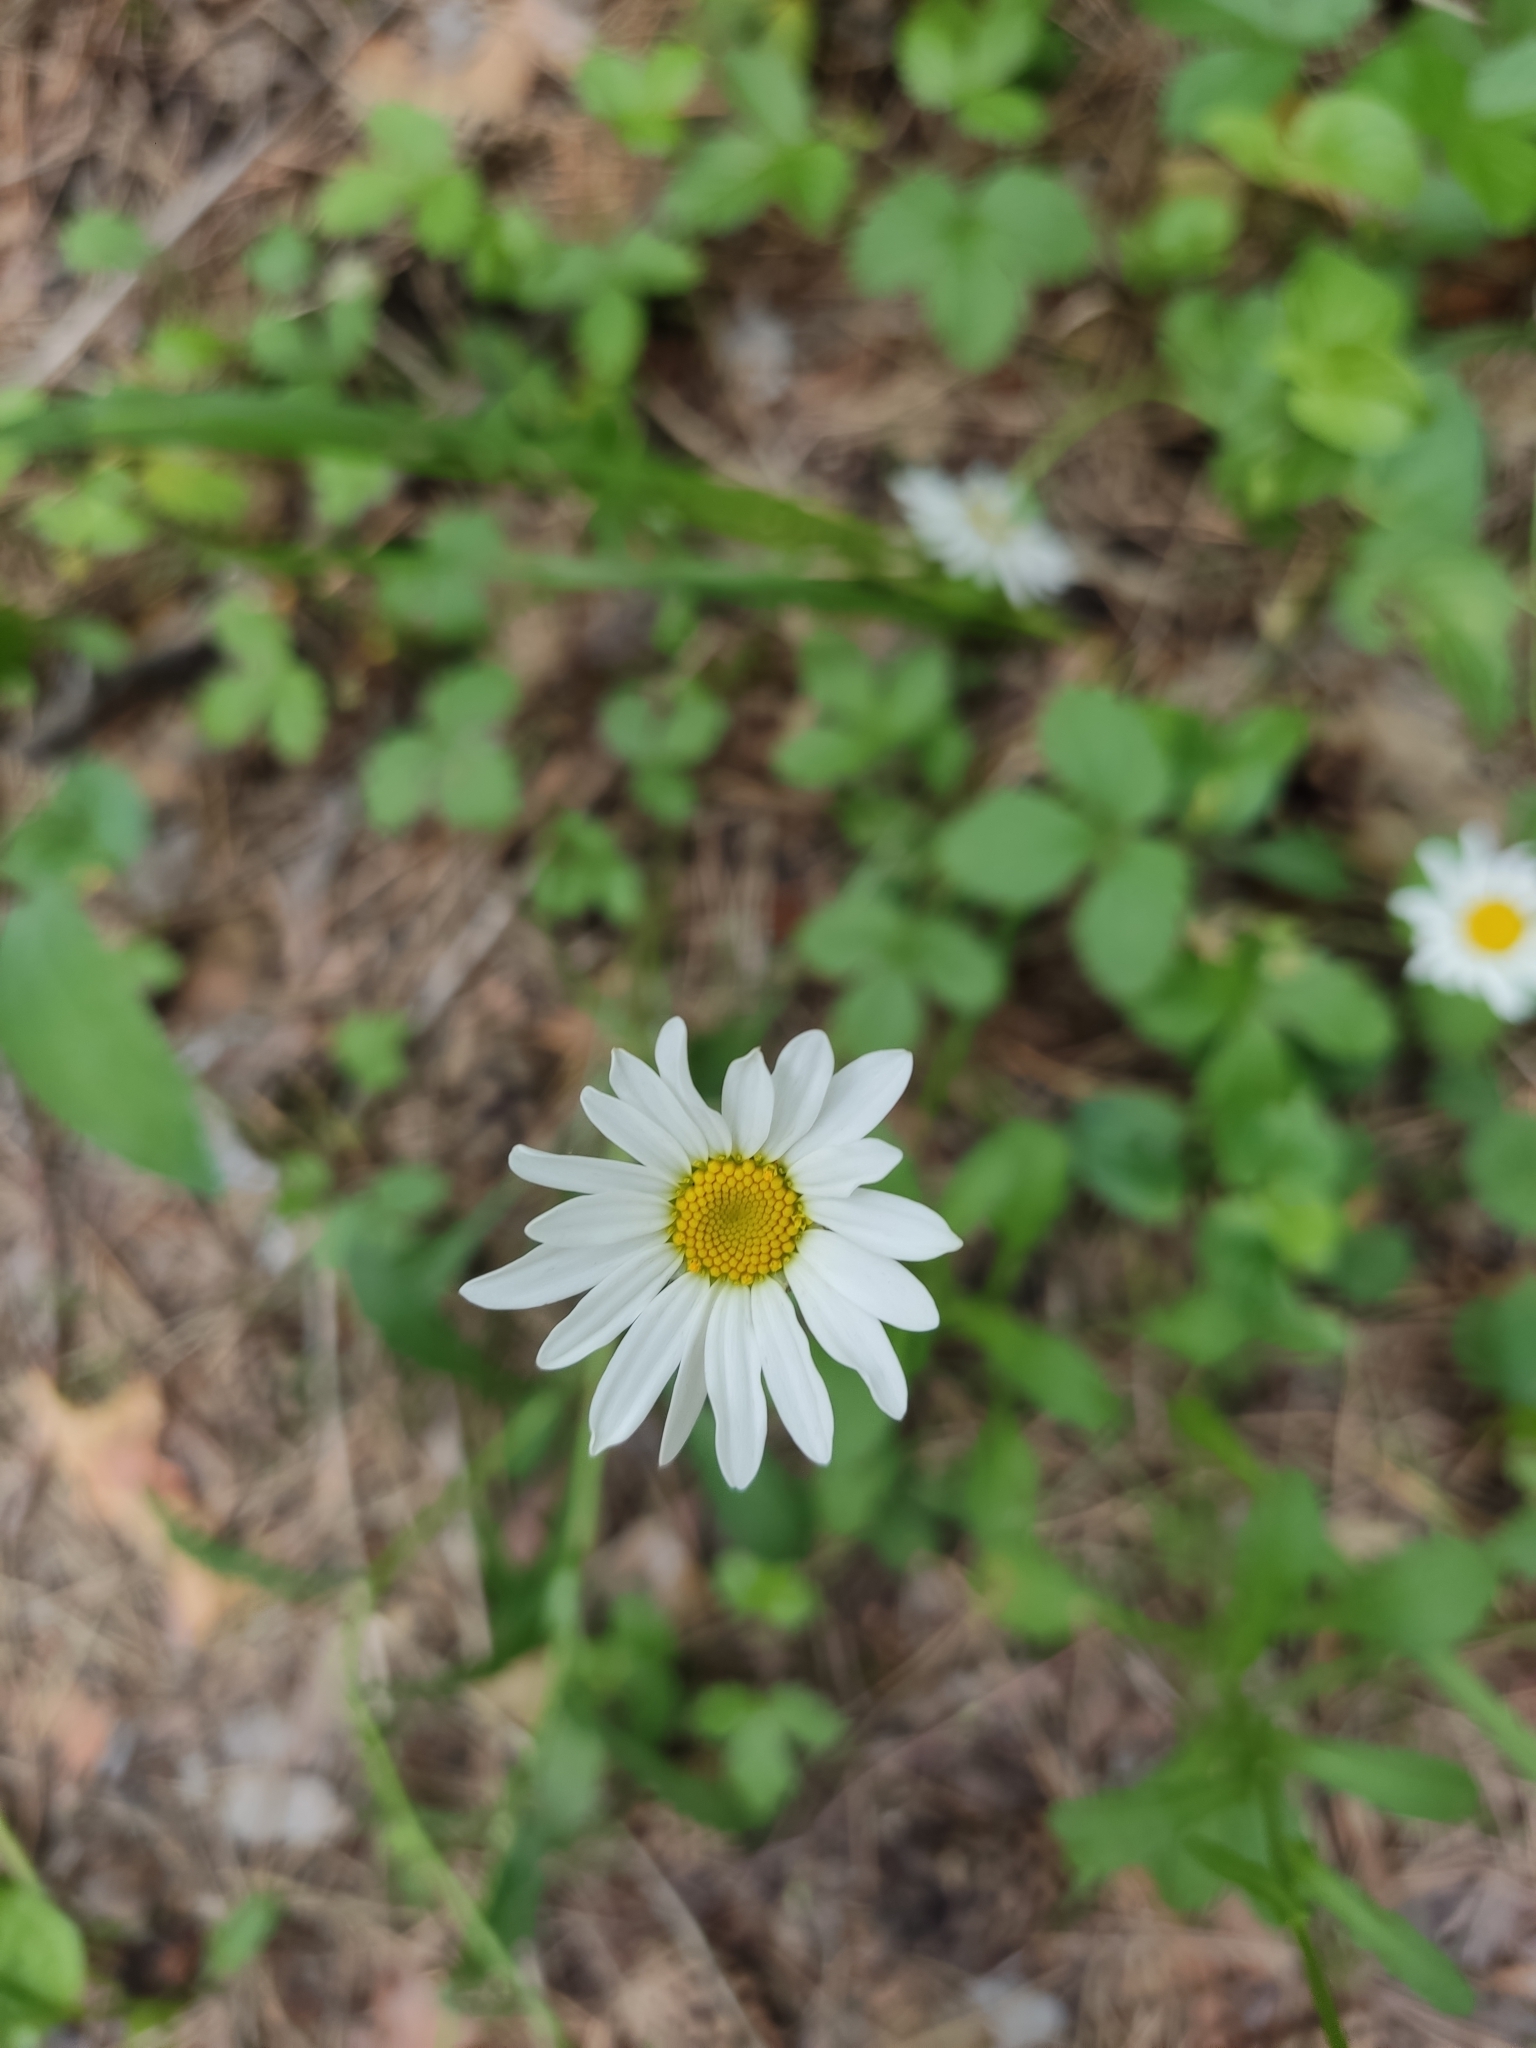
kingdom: Plantae
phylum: Tracheophyta
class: Magnoliopsida
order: Asterales
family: Asteraceae
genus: Leucanthemum
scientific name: Leucanthemum vulgare
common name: Oxeye daisy
